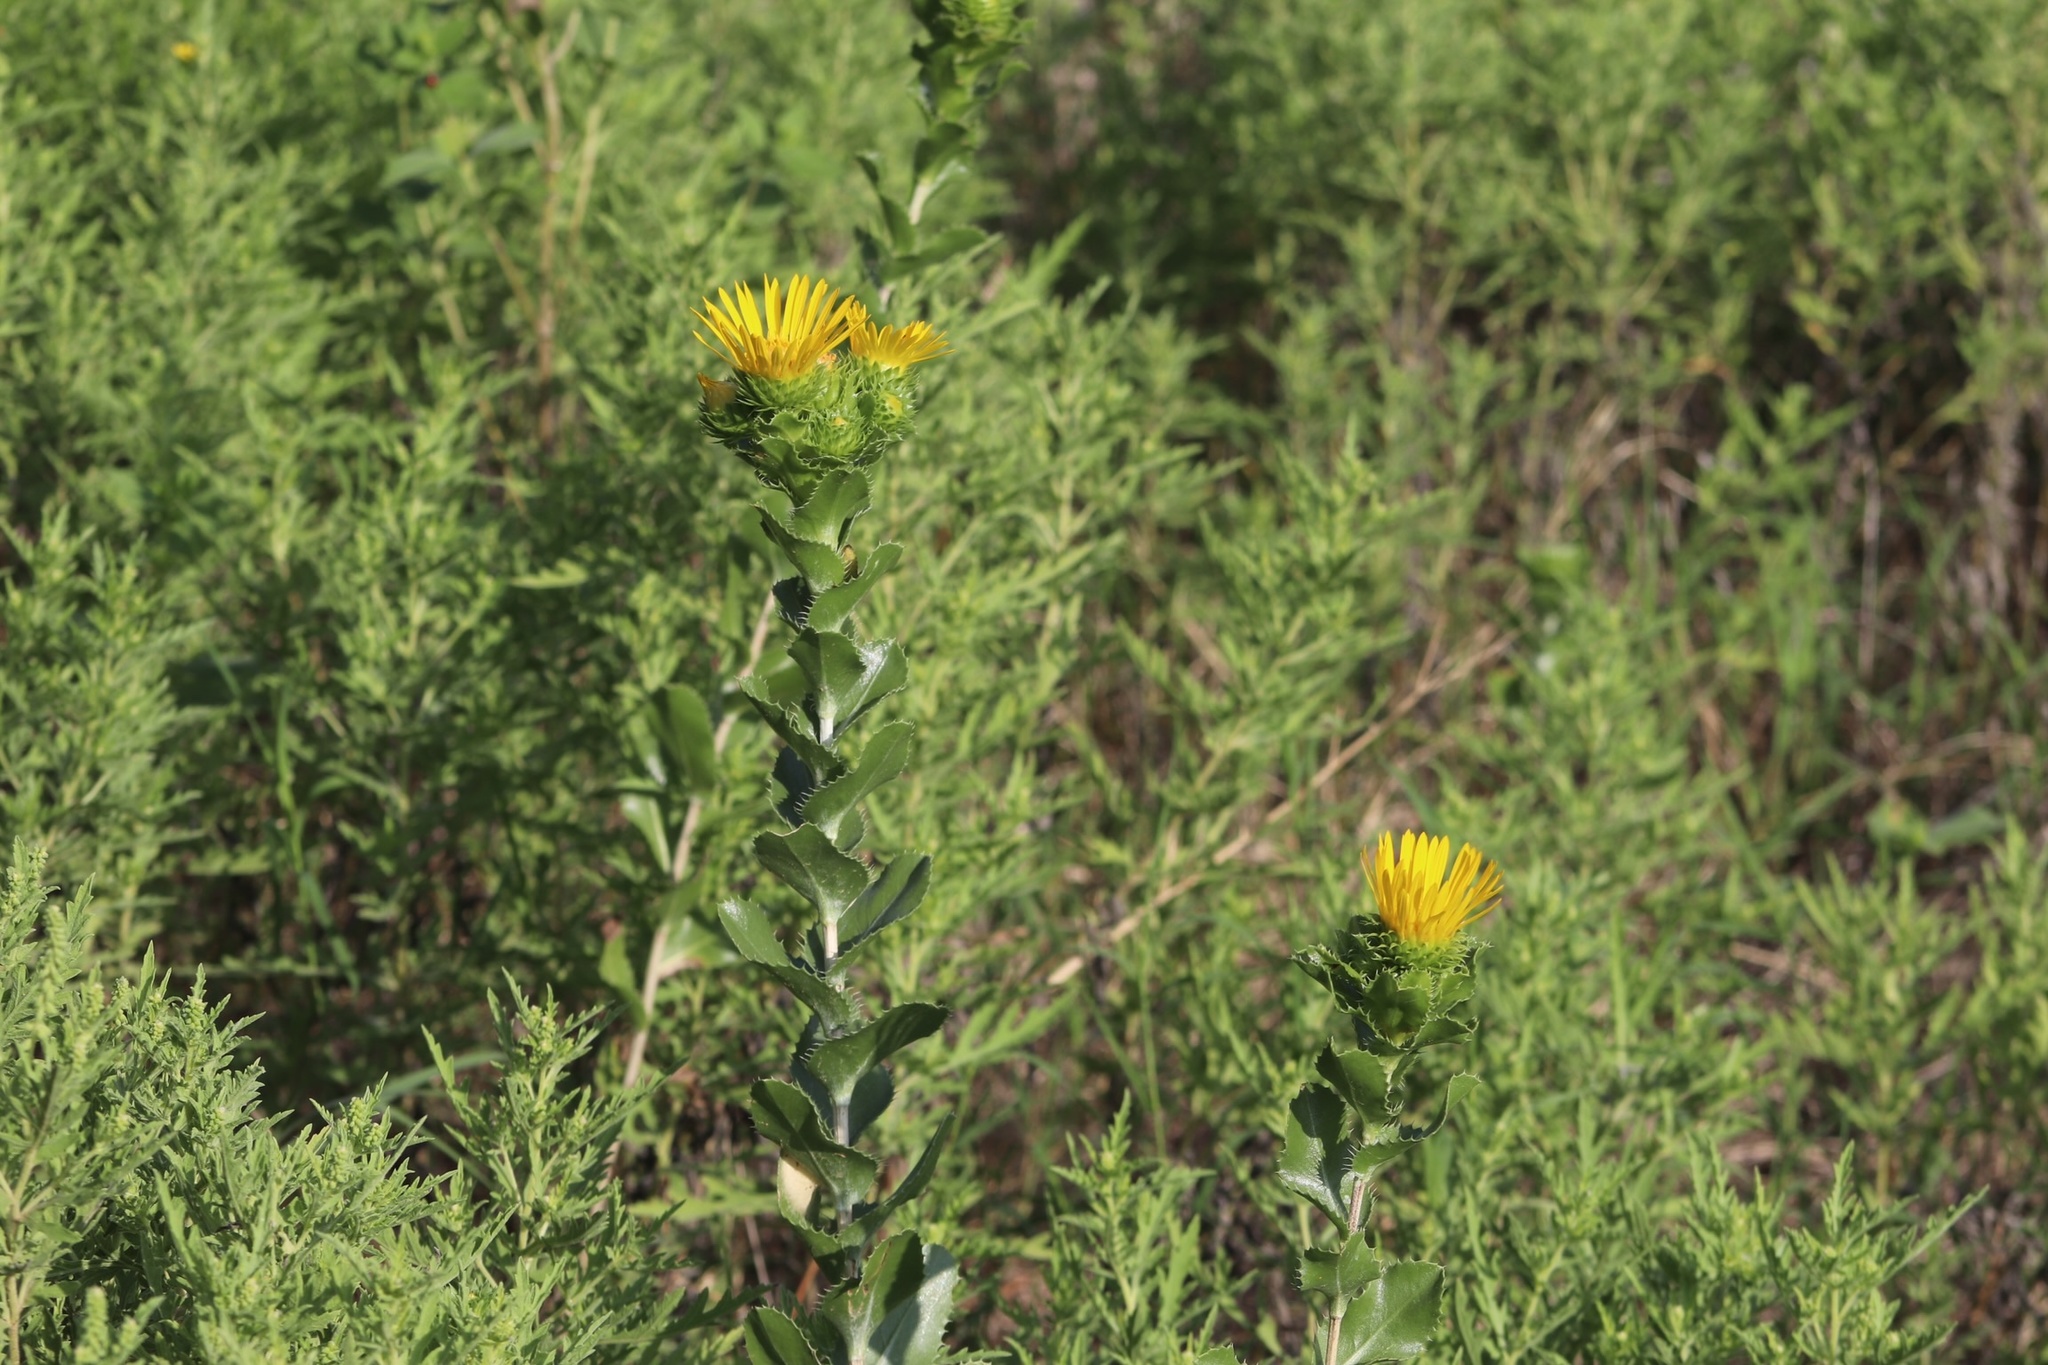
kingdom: Plantae
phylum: Tracheophyta
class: Magnoliopsida
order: Asterales
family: Asteraceae
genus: Grindelia
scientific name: Grindelia ciliata
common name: Goldenweed
